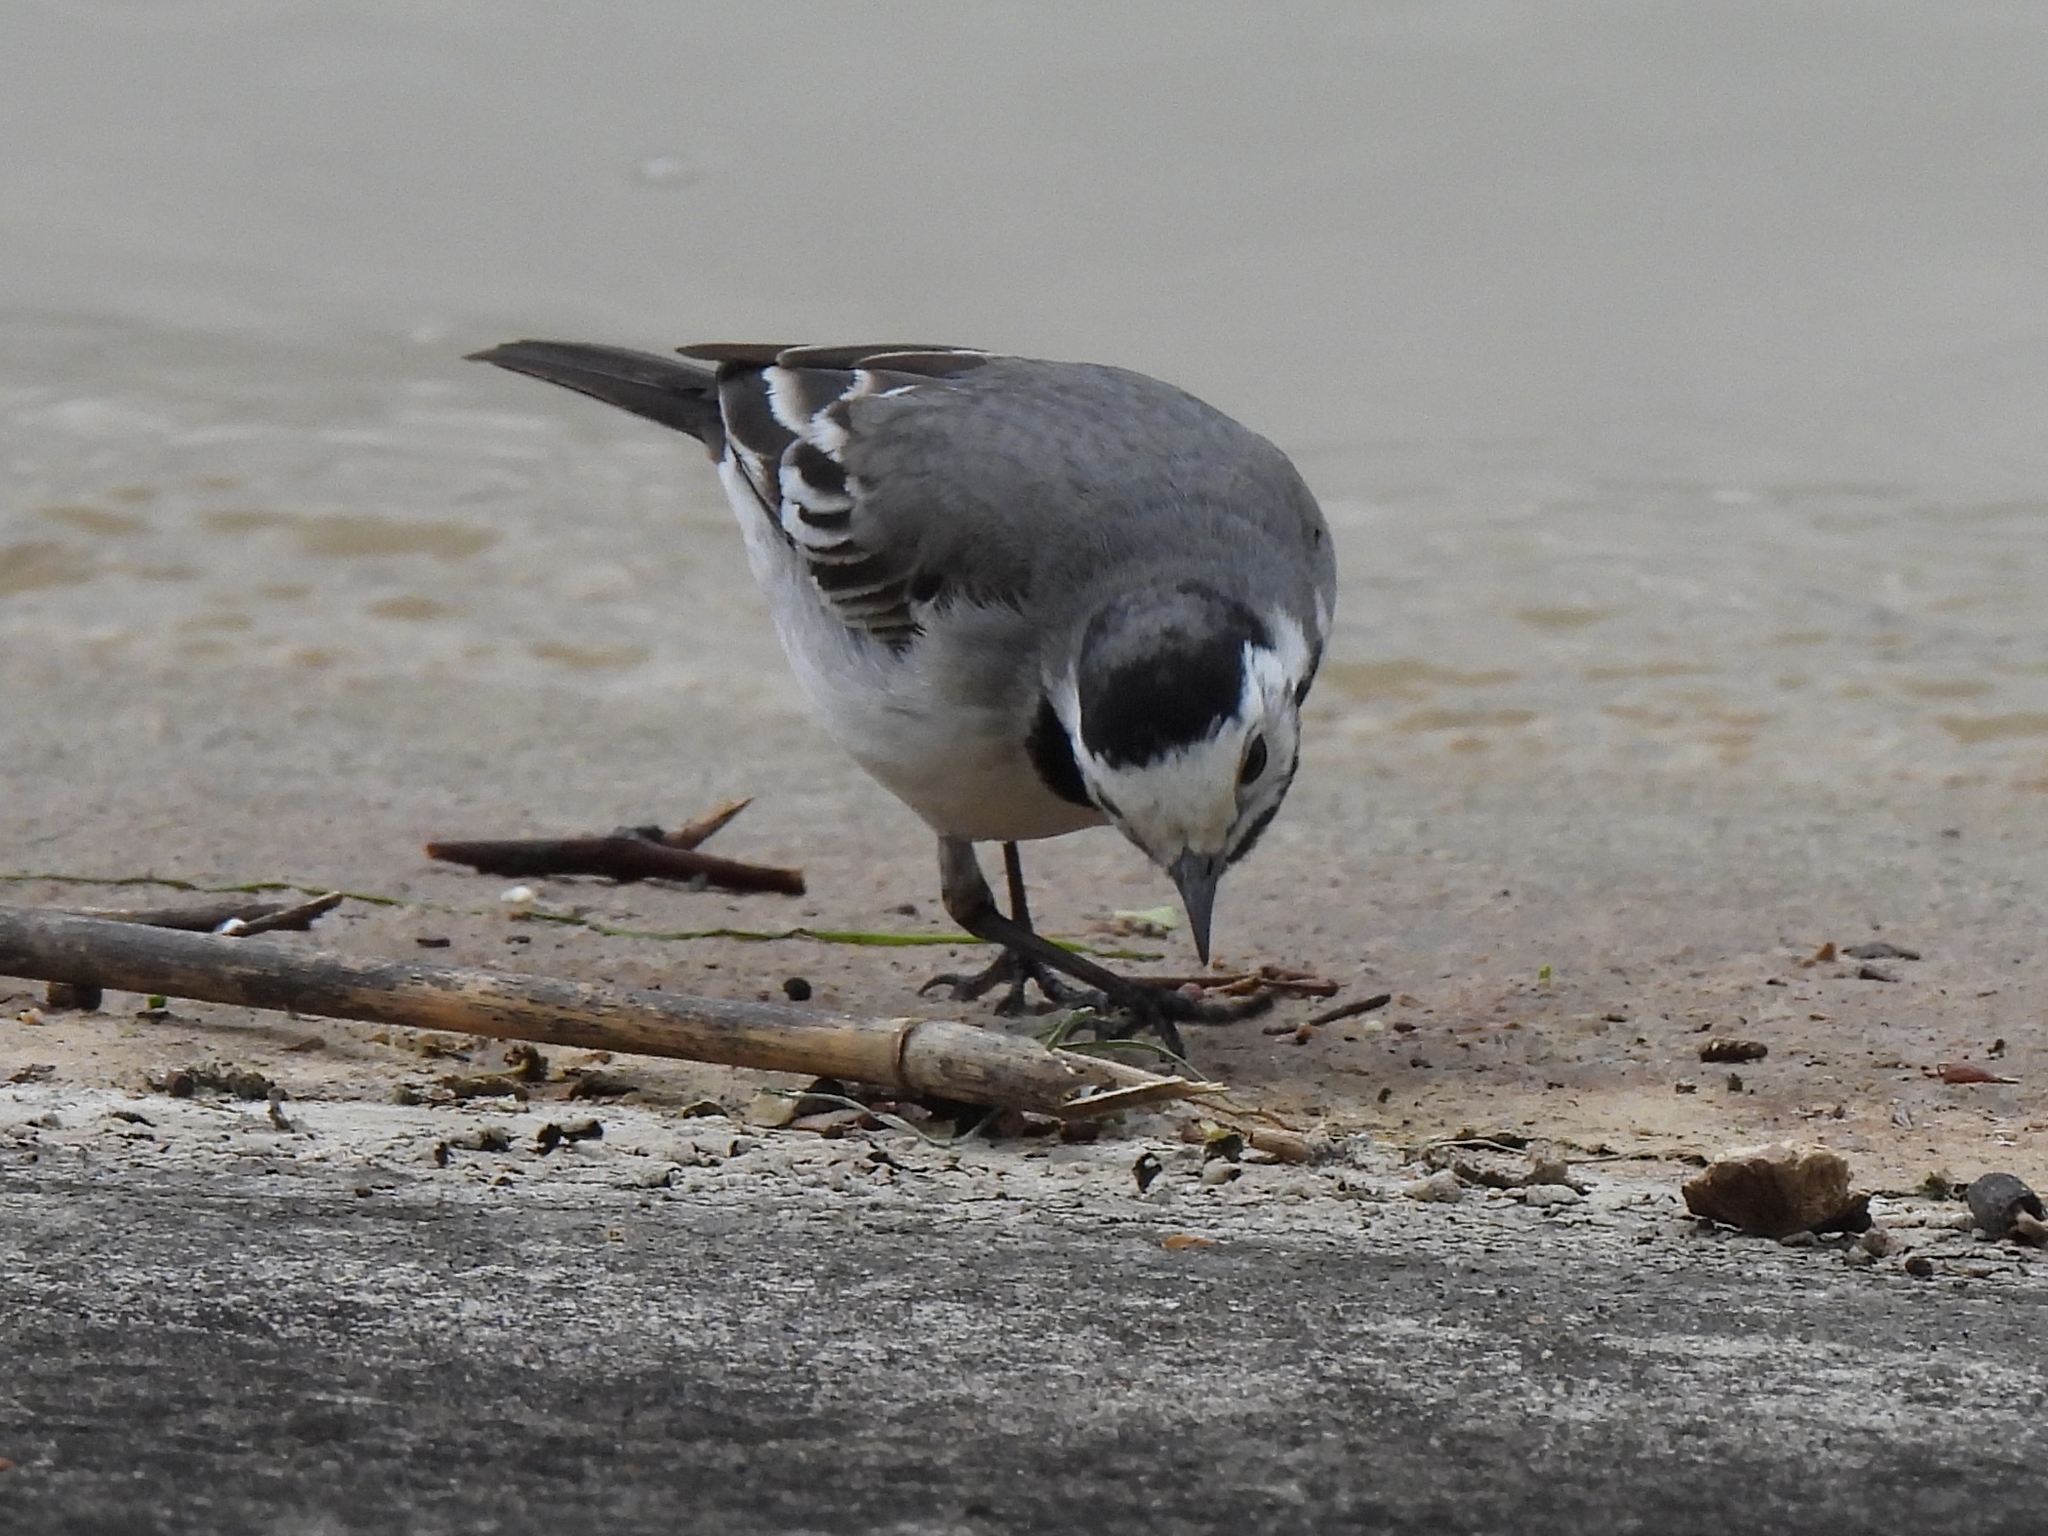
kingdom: Animalia
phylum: Chordata
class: Aves
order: Passeriformes
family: Motacillidae
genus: Motacilla
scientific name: Motacilla alba
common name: White wagtail
